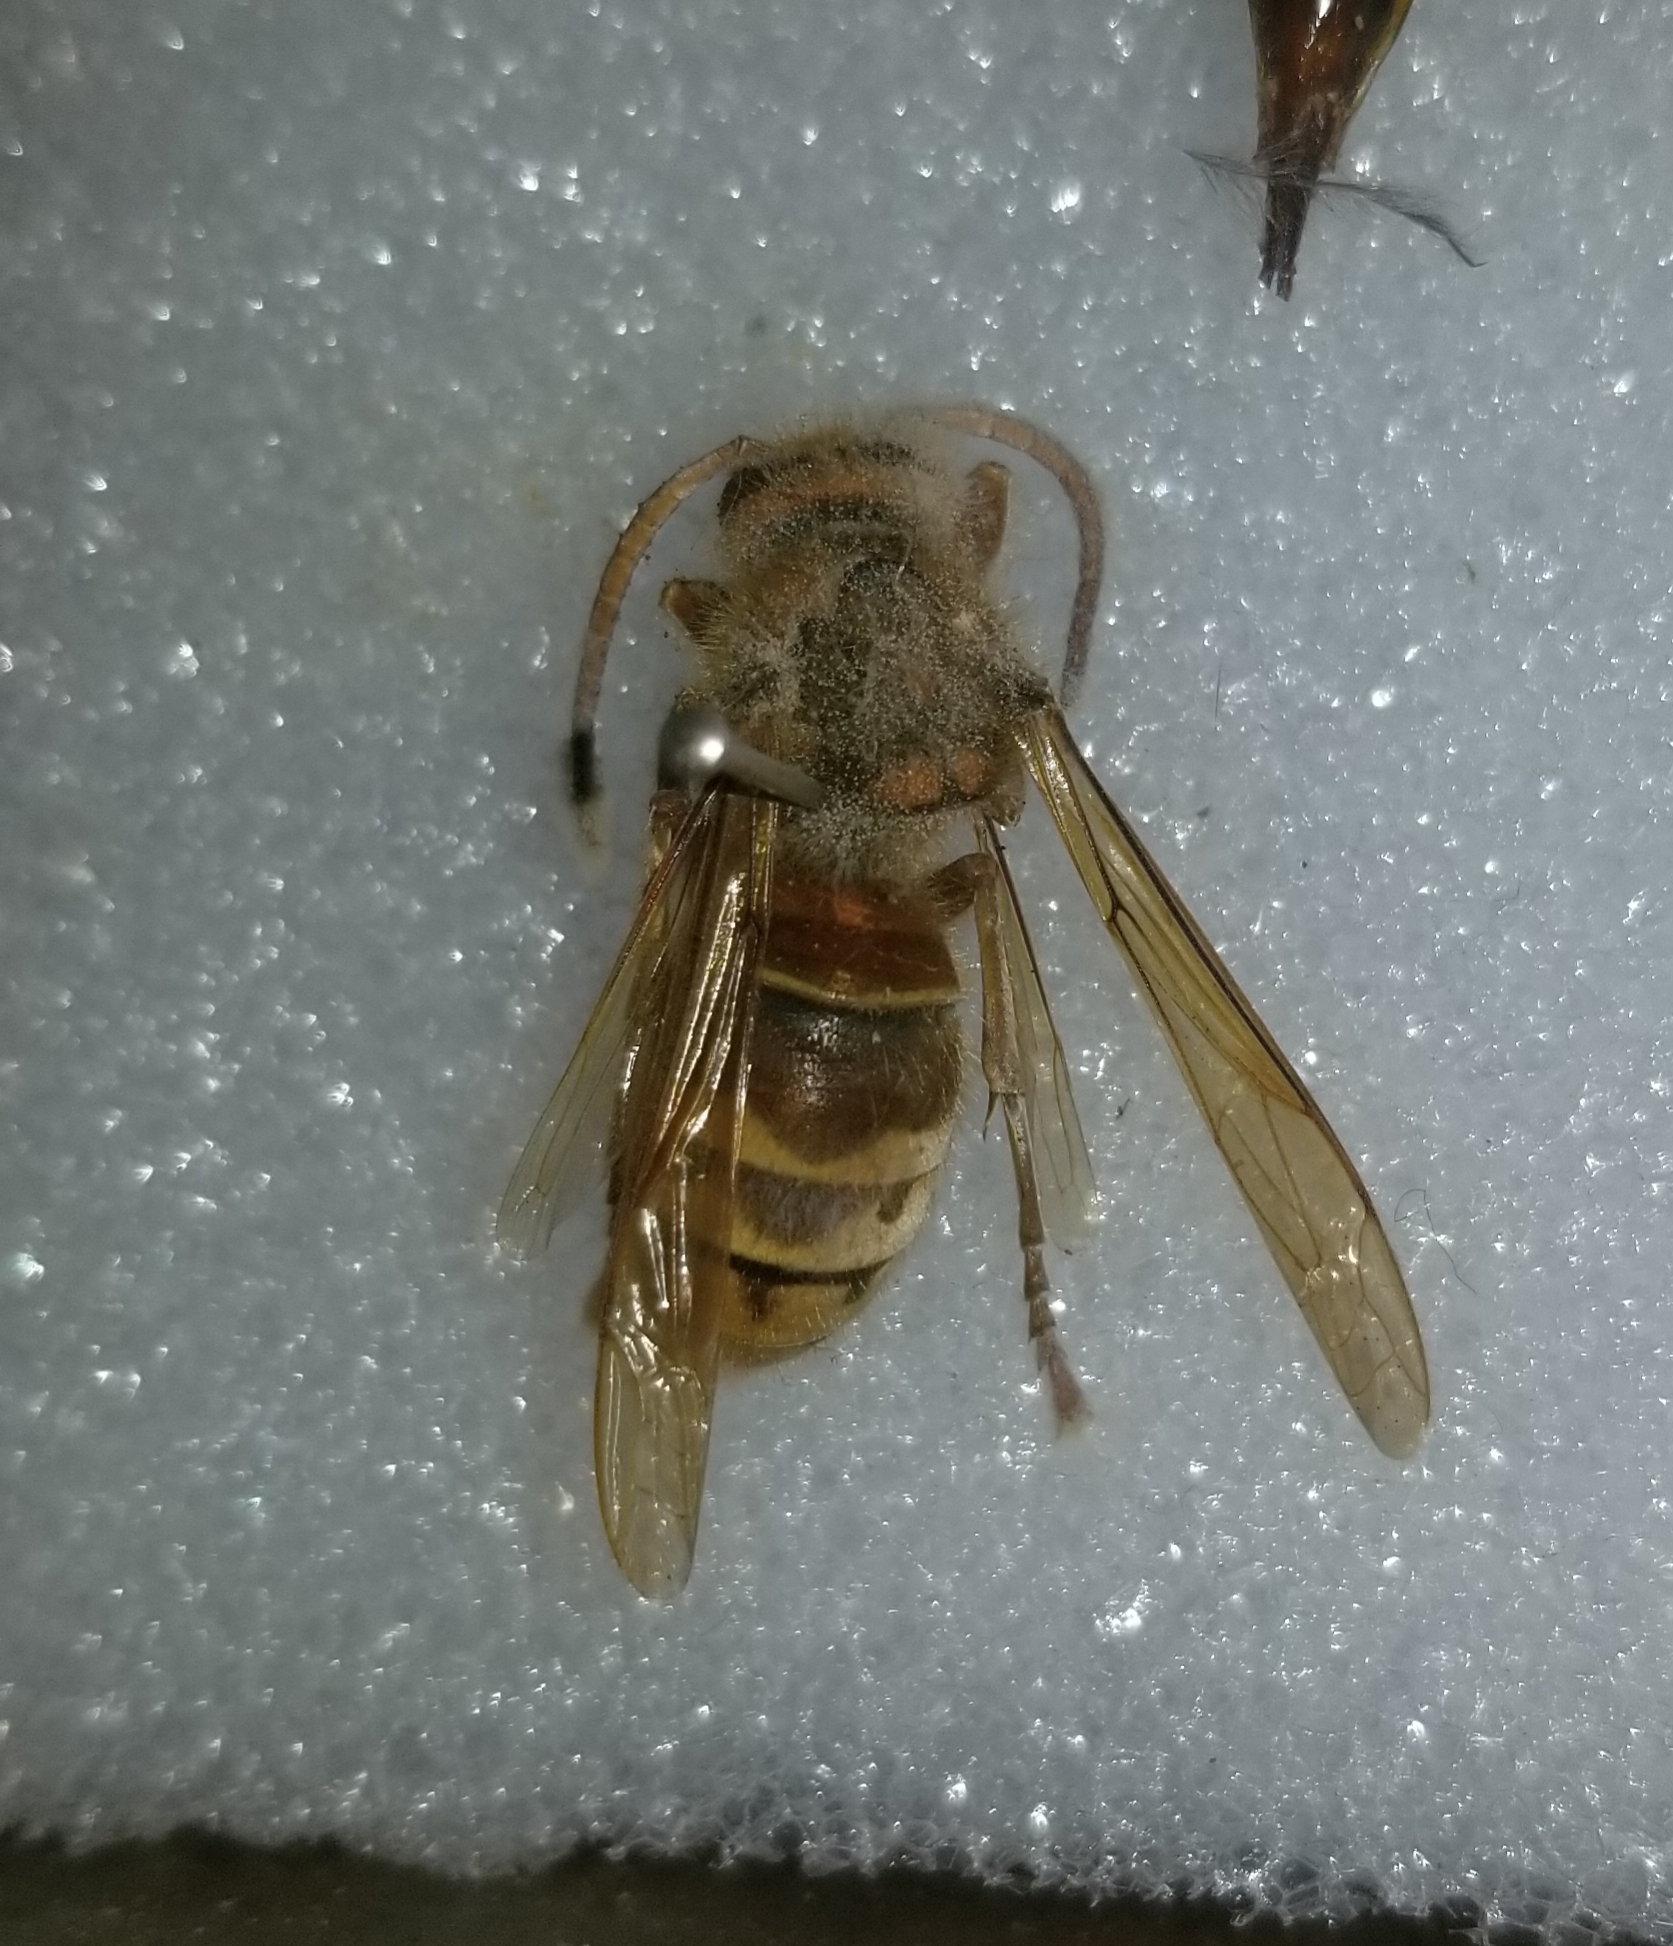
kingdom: Animalia
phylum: Arthropoda
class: Insecta
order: Hymenoptera
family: Vespidae
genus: Vespa
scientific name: Vespa crabro
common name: Hornet
